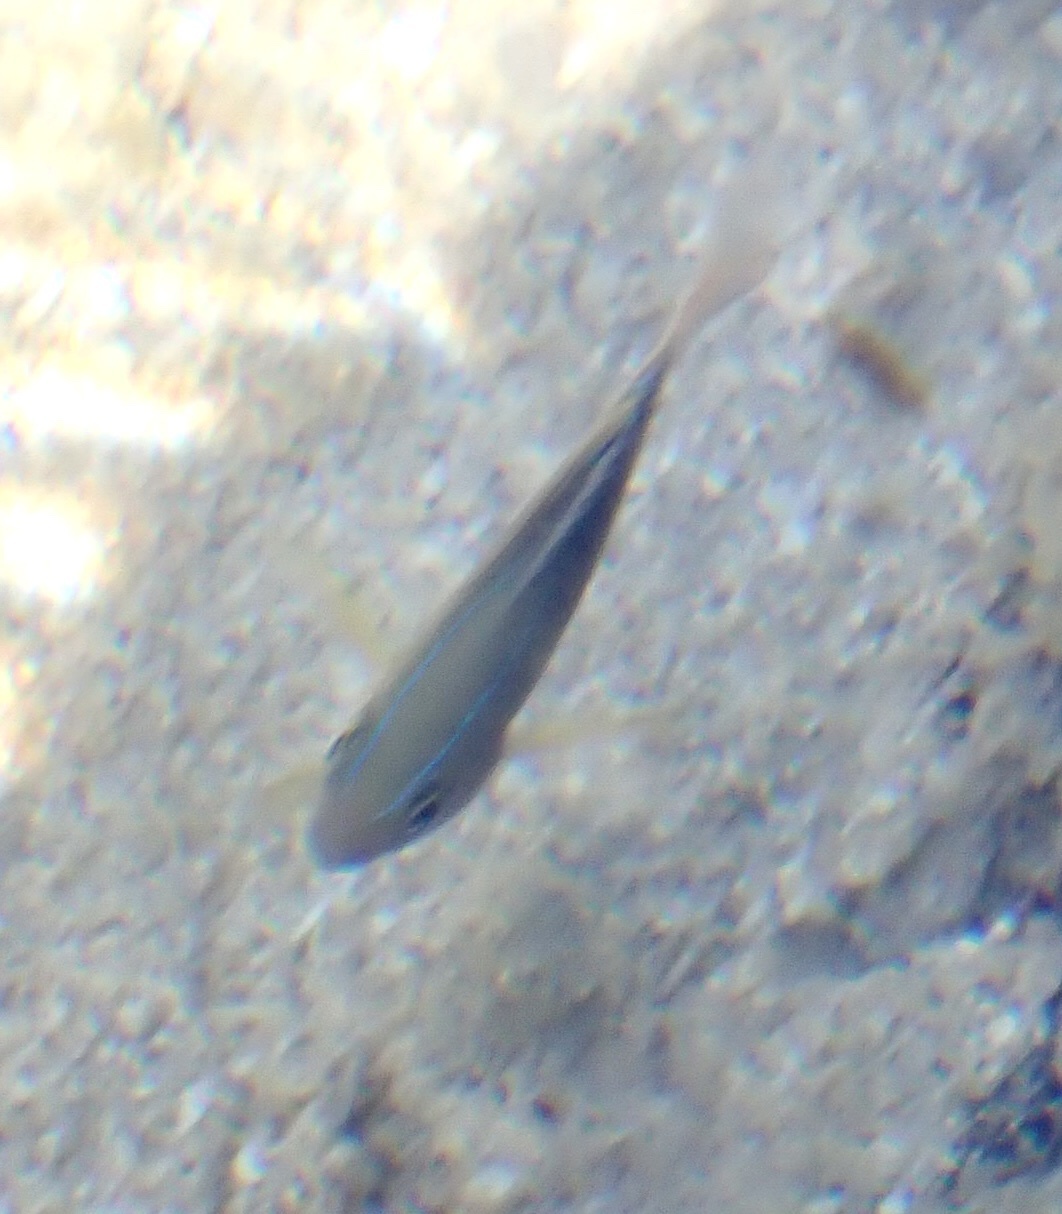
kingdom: Animalia
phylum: Chordata
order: Perciformes
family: Pomacentridae
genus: Chrysiptera
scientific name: Chrysiptera unimaculata
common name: Onespot demoiselle
